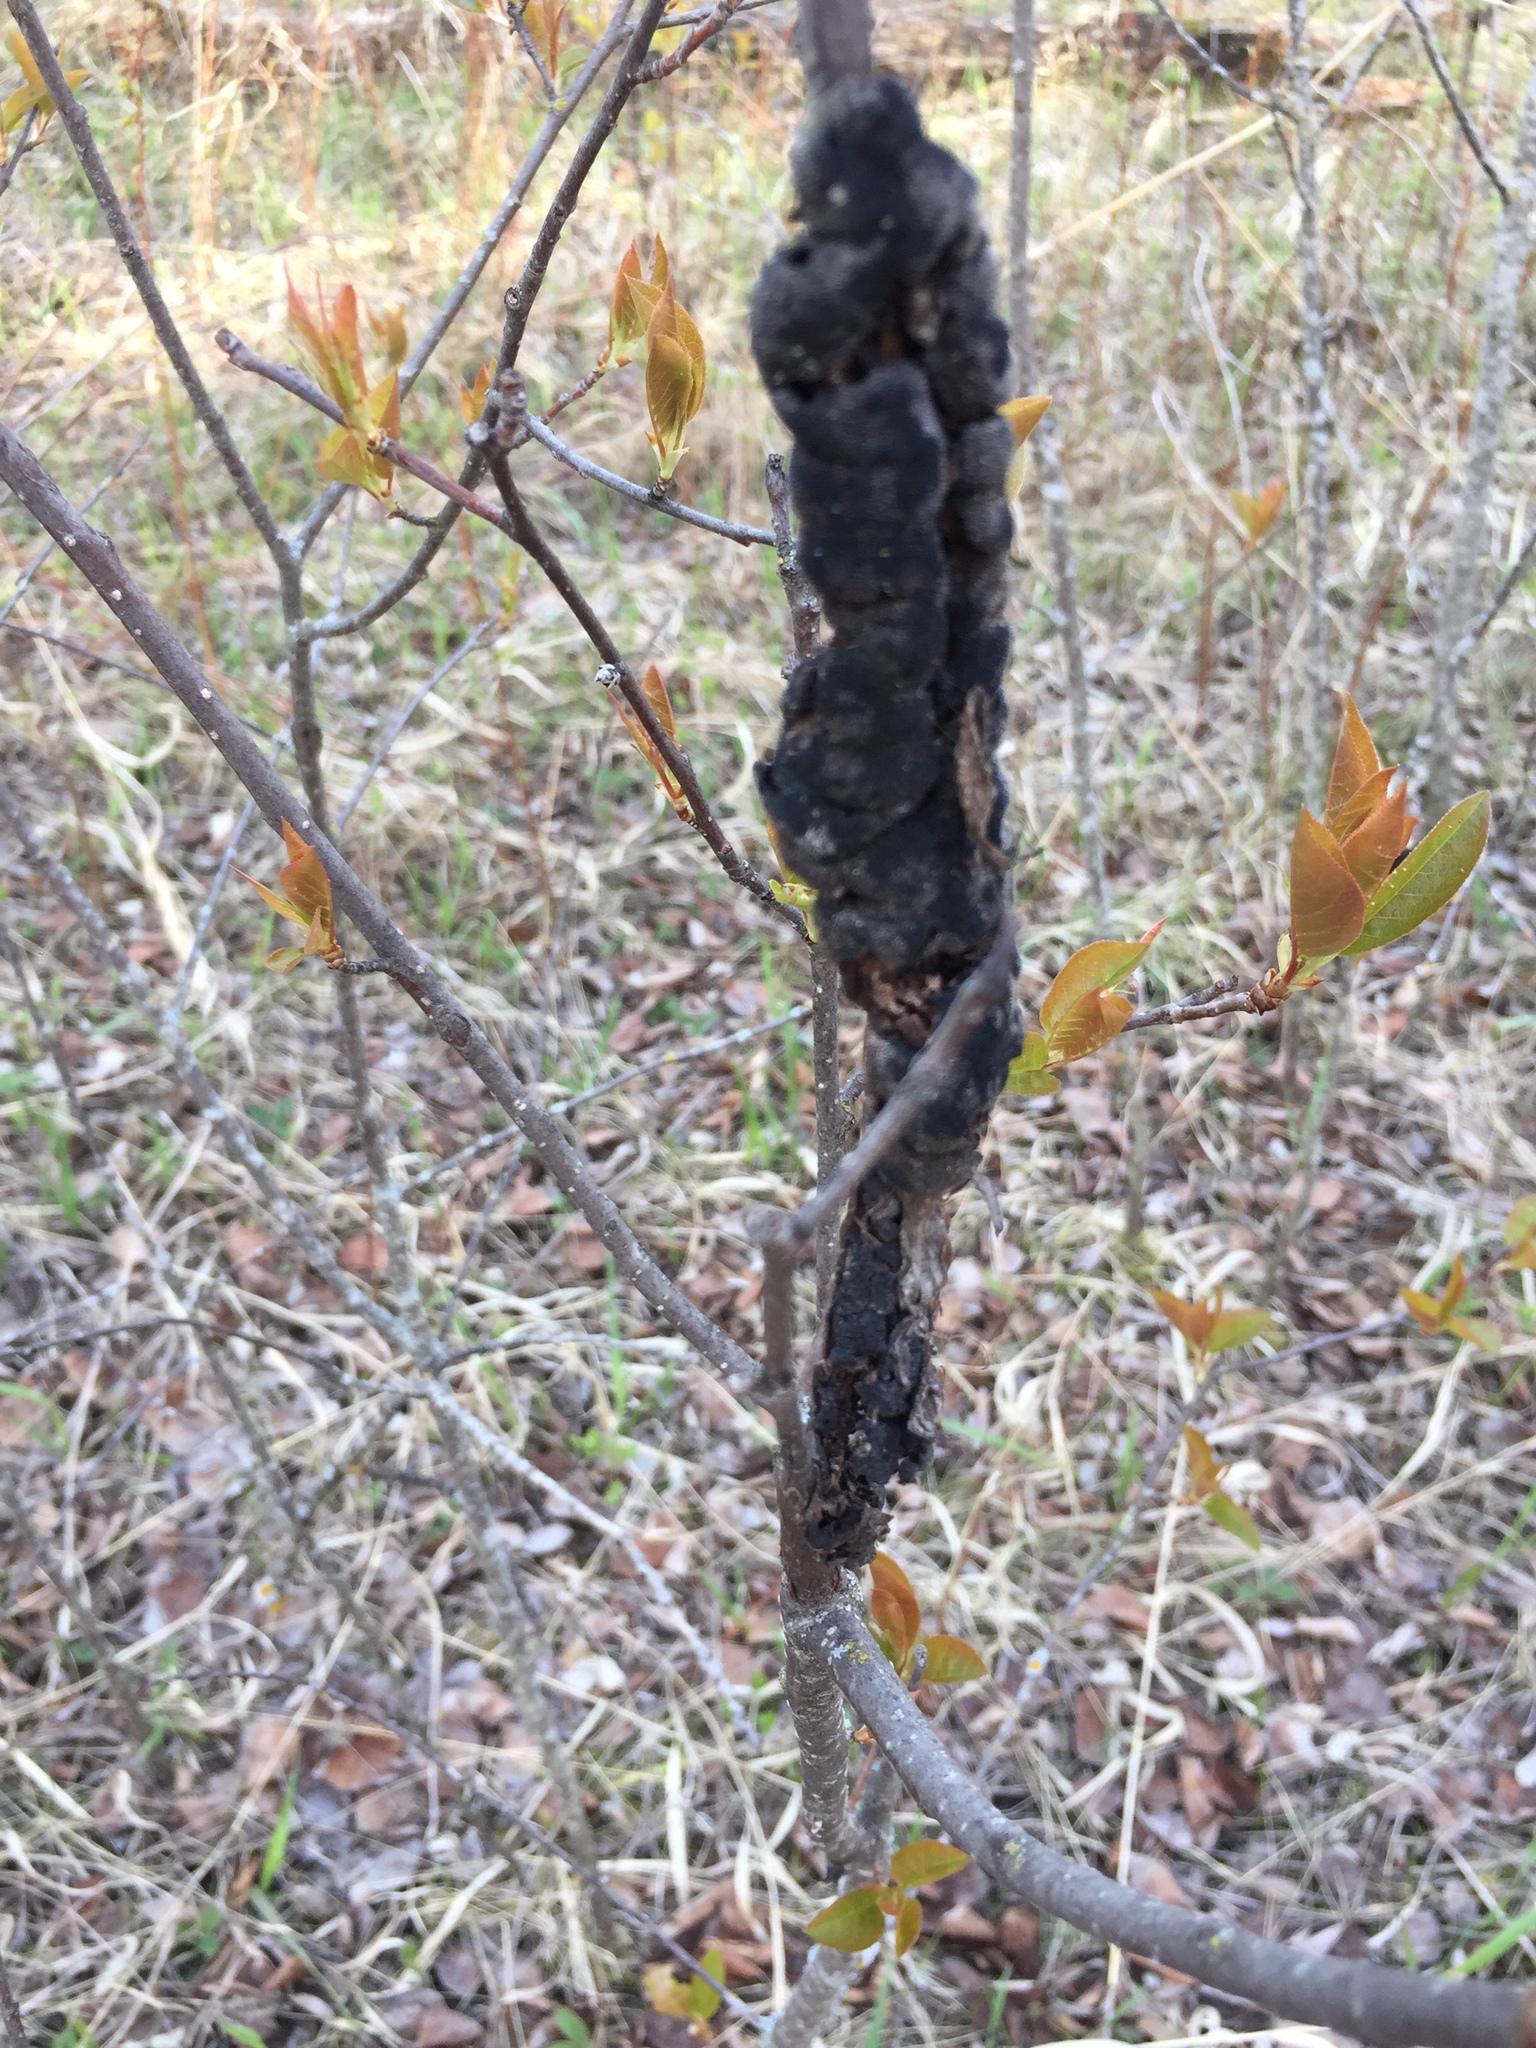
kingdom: Fungi
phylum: Ascomycota
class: Dothideomycetes
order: Venturiales
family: Venturiaceae
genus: Apiosporina
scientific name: Apiosporina morbosa
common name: Black knot
